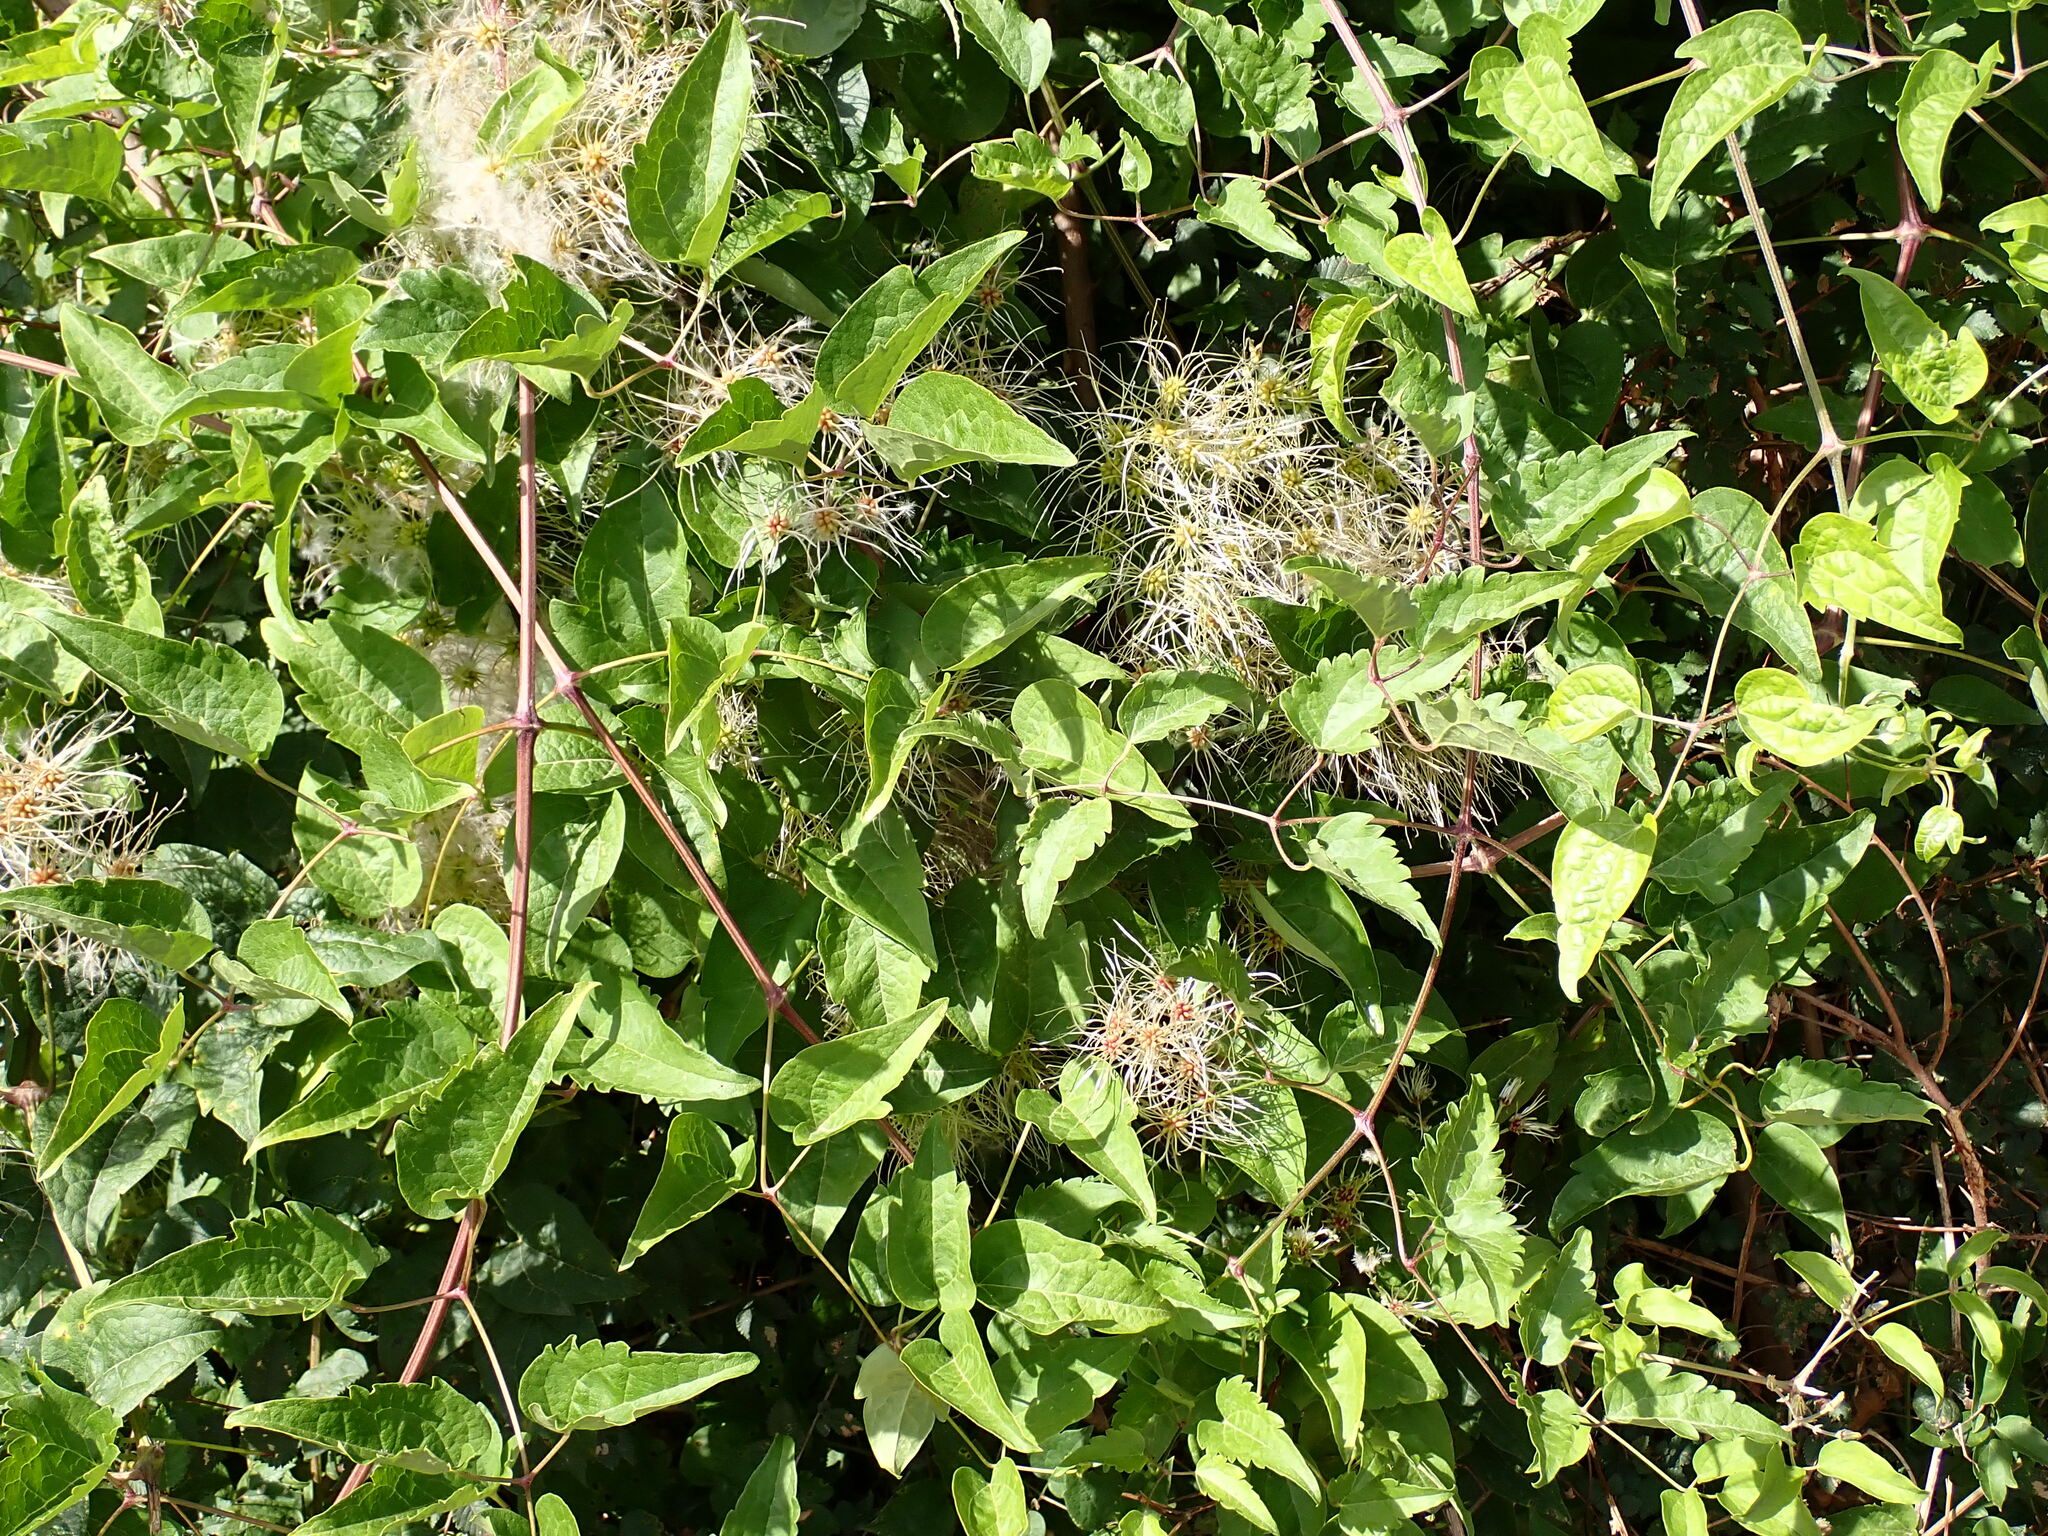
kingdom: Plantae
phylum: Tracheophyta
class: Magnoliopsida
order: Ranunculales
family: Ranunculaceae
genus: Clematis
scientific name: Clematis vitalba
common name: Evergreen clematis
